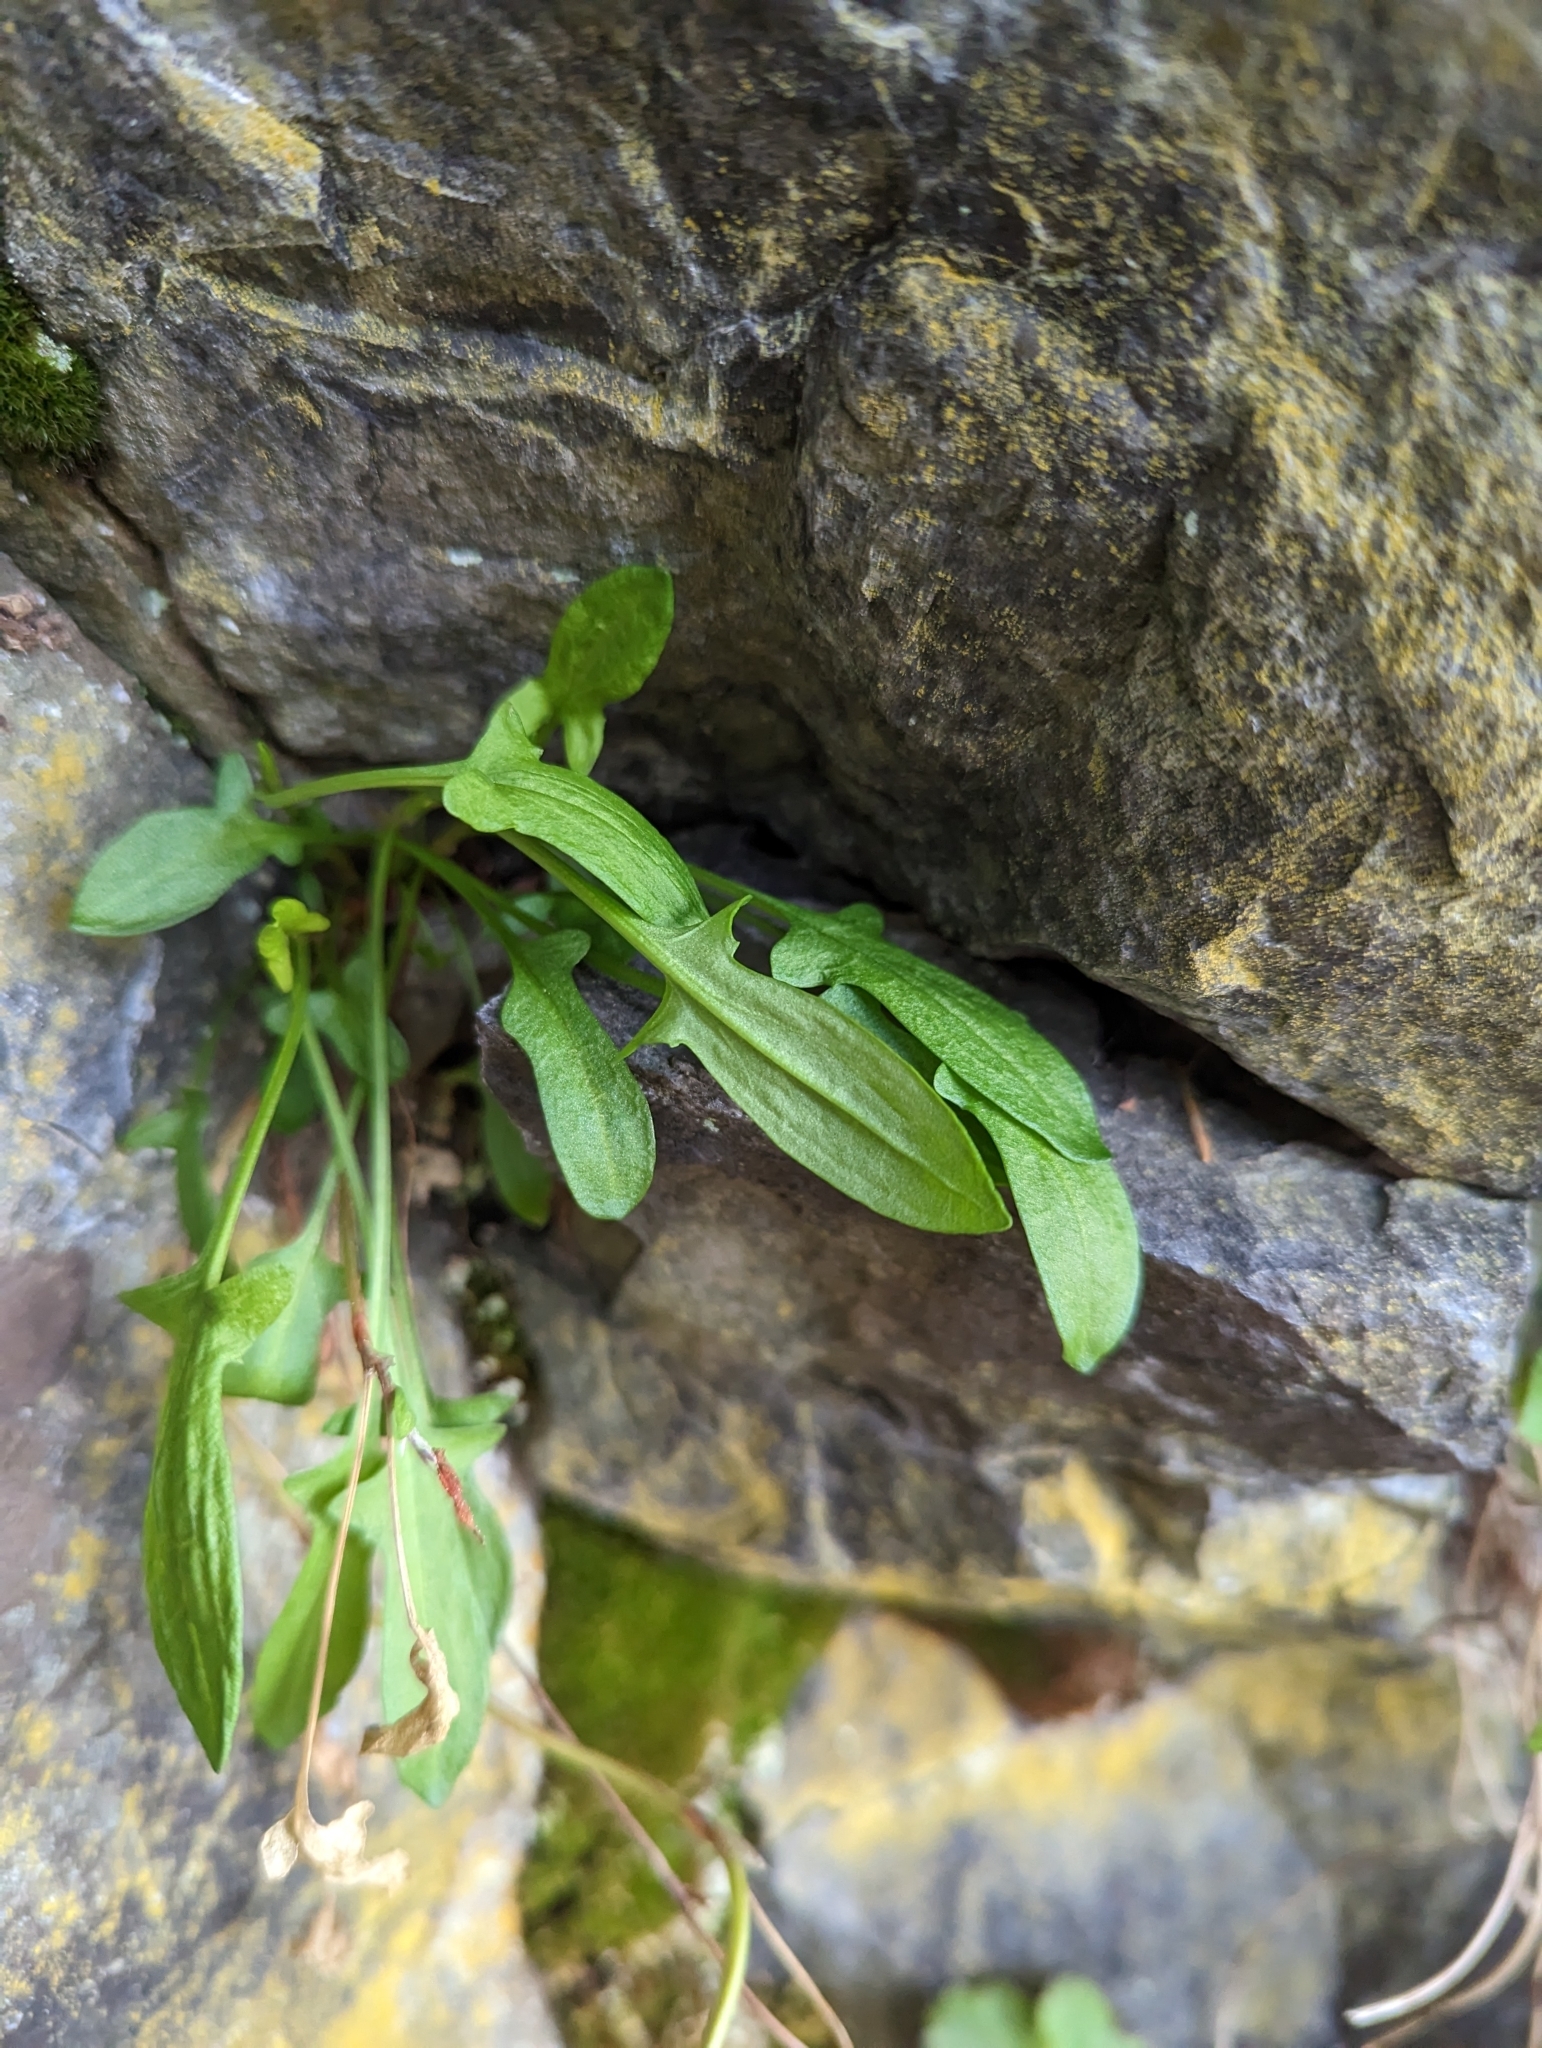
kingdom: Plantae
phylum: Tracheophyta
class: Magnoliopsida
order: Caryophyllales
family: Polygonaceae
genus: Rumex
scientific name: Rumex acetosella
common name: Common sheep sorrel
